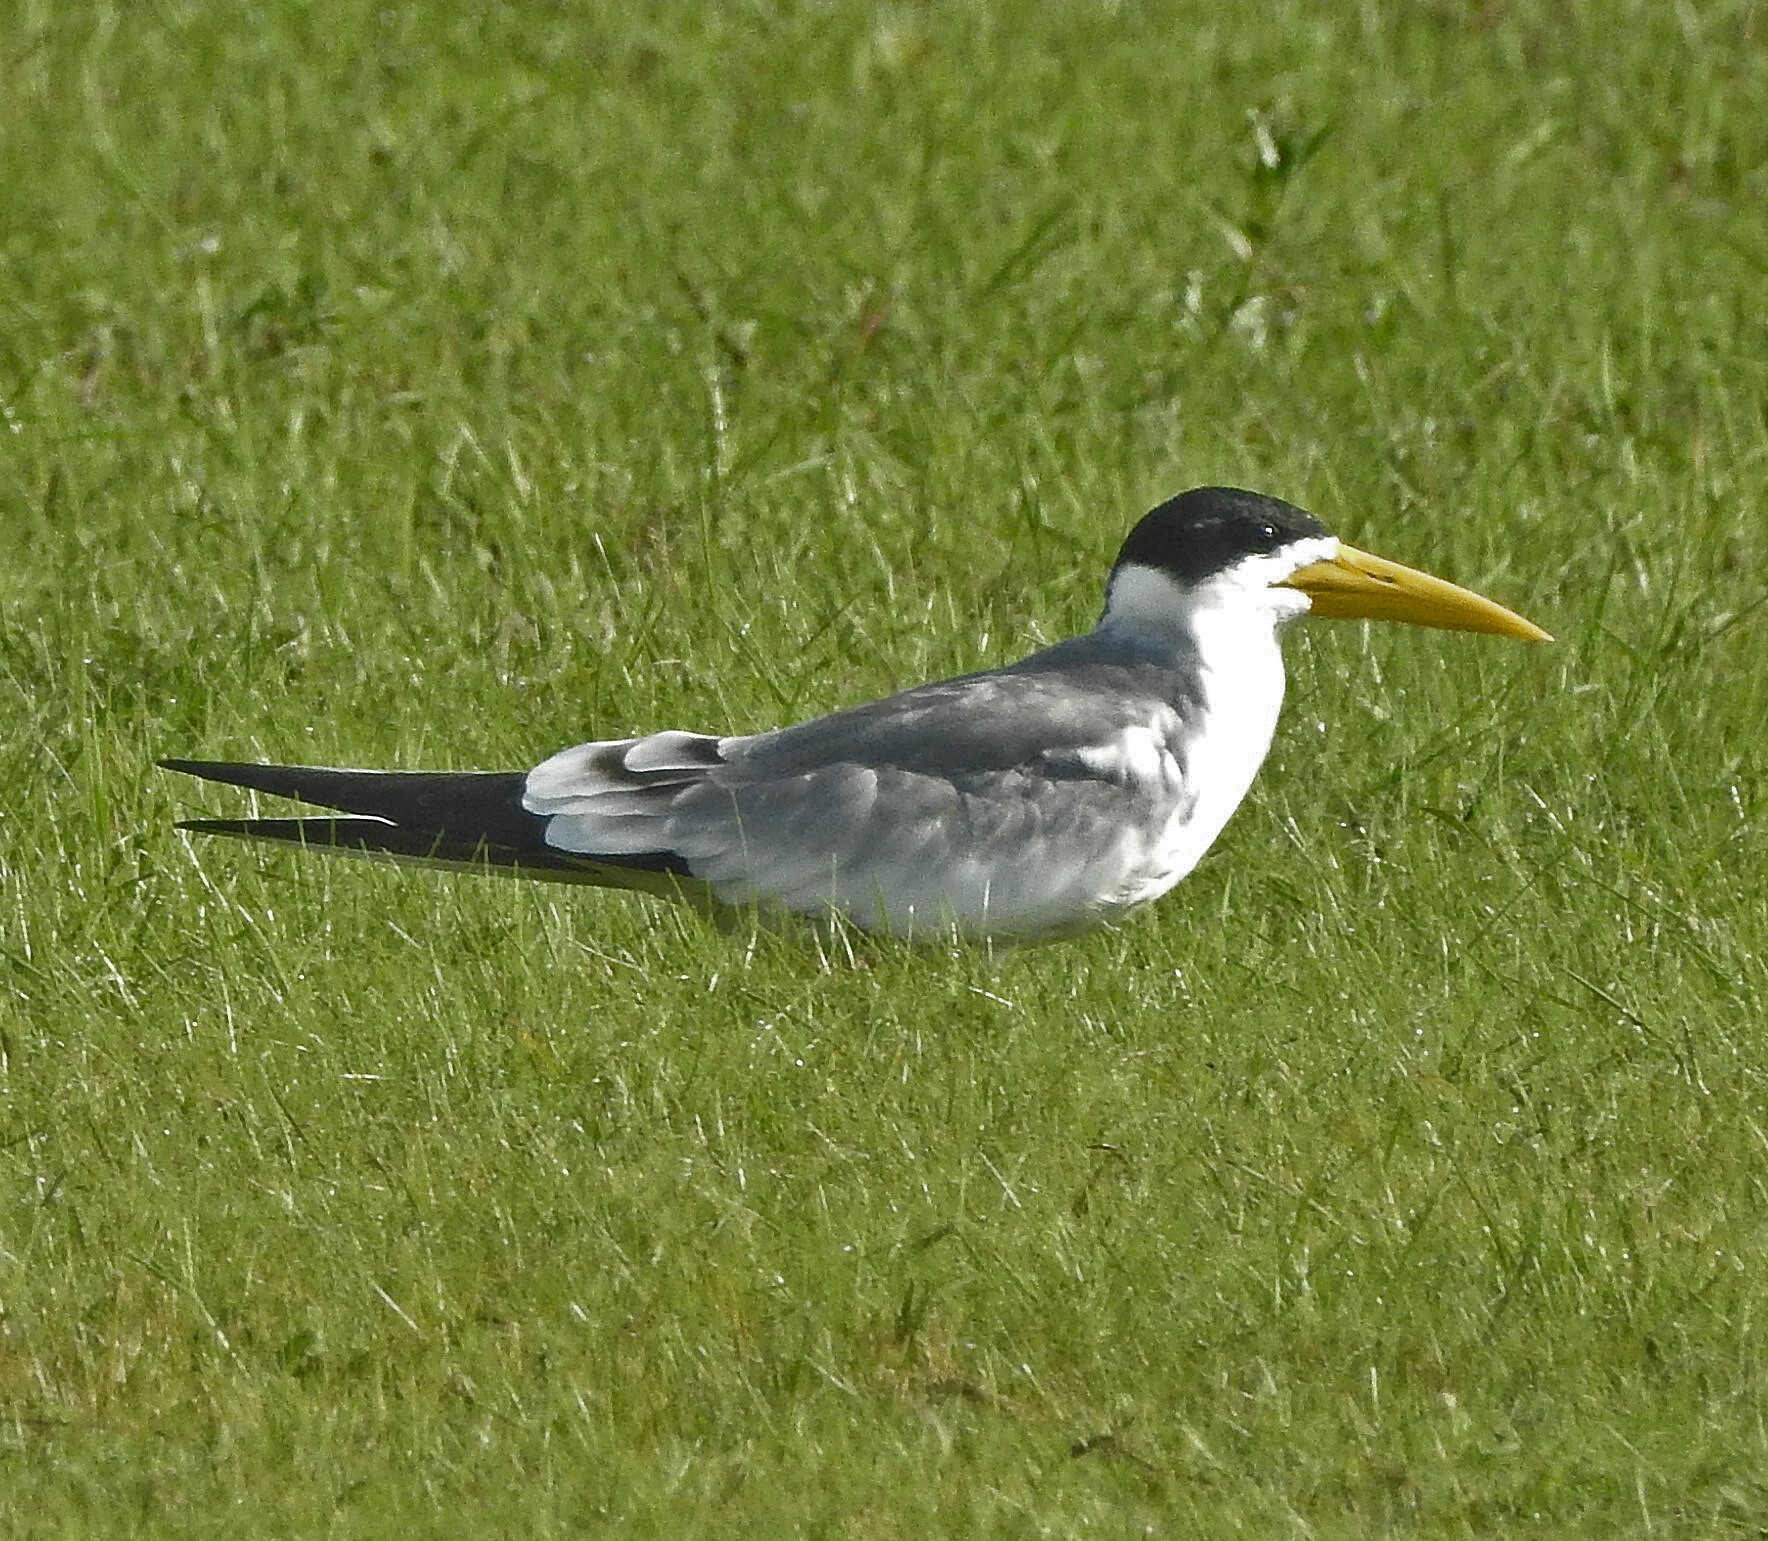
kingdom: Animalia
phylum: Chordata
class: Aves
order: Charadriiformes
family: Laridae
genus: Phaetusa
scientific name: Phaetusa simplex
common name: Large-billed tern
